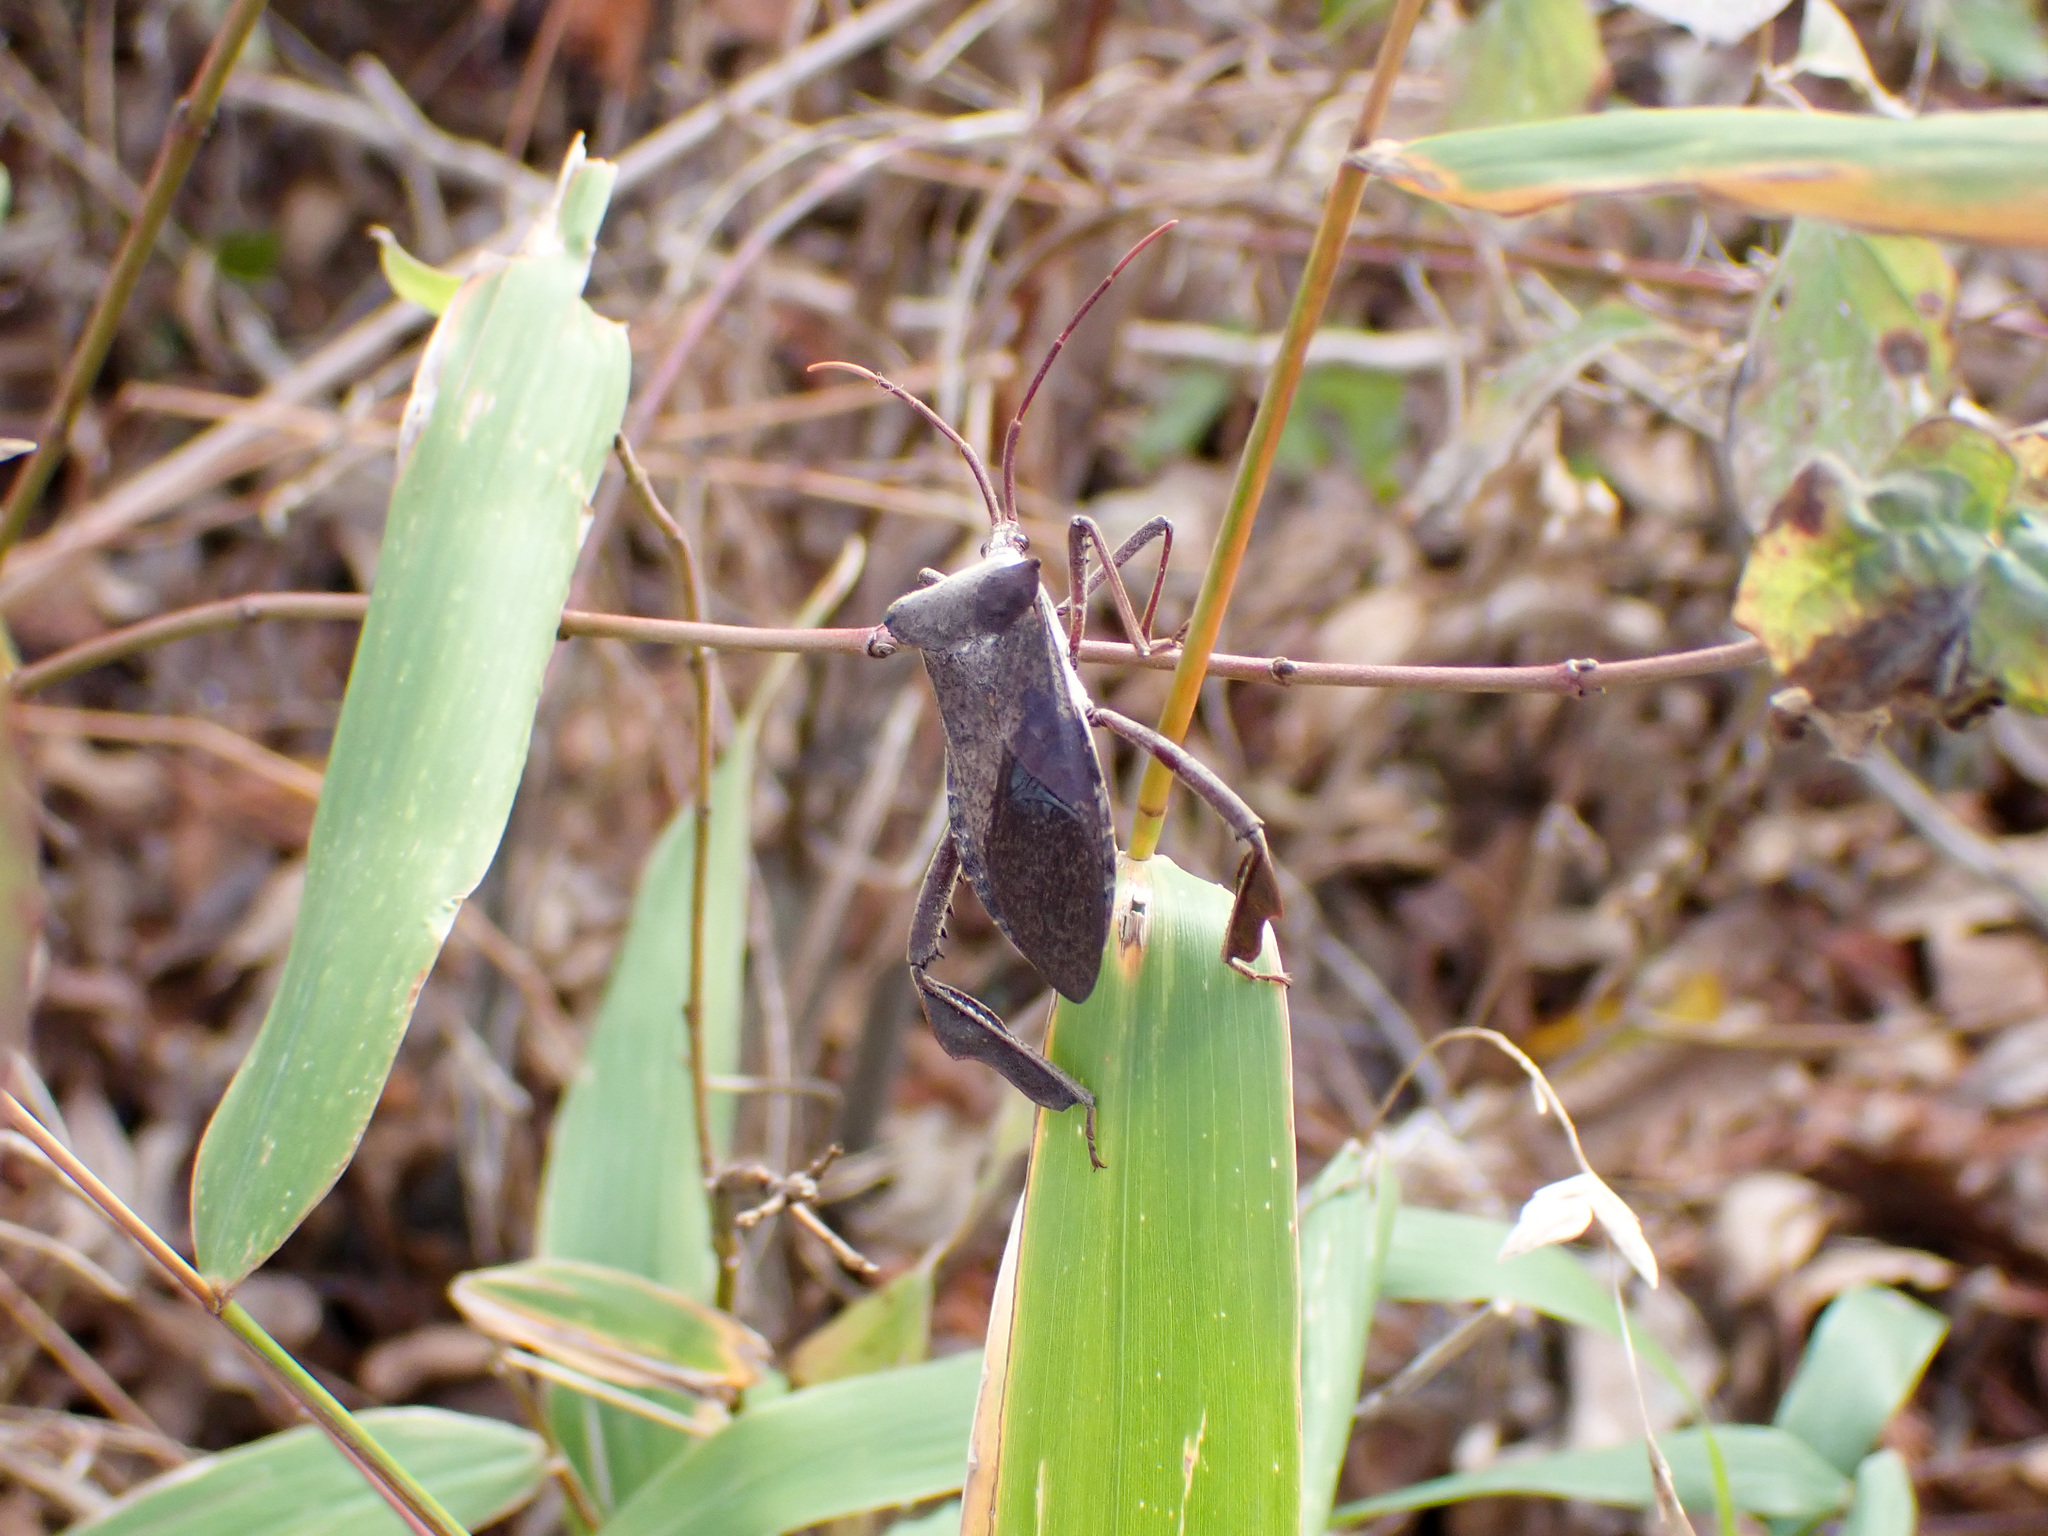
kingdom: Animalia
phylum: Arthropoda
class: Insecta
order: Hemiptera
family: Coreidae
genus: Acanthocephala
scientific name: Acanthocephala declivis
